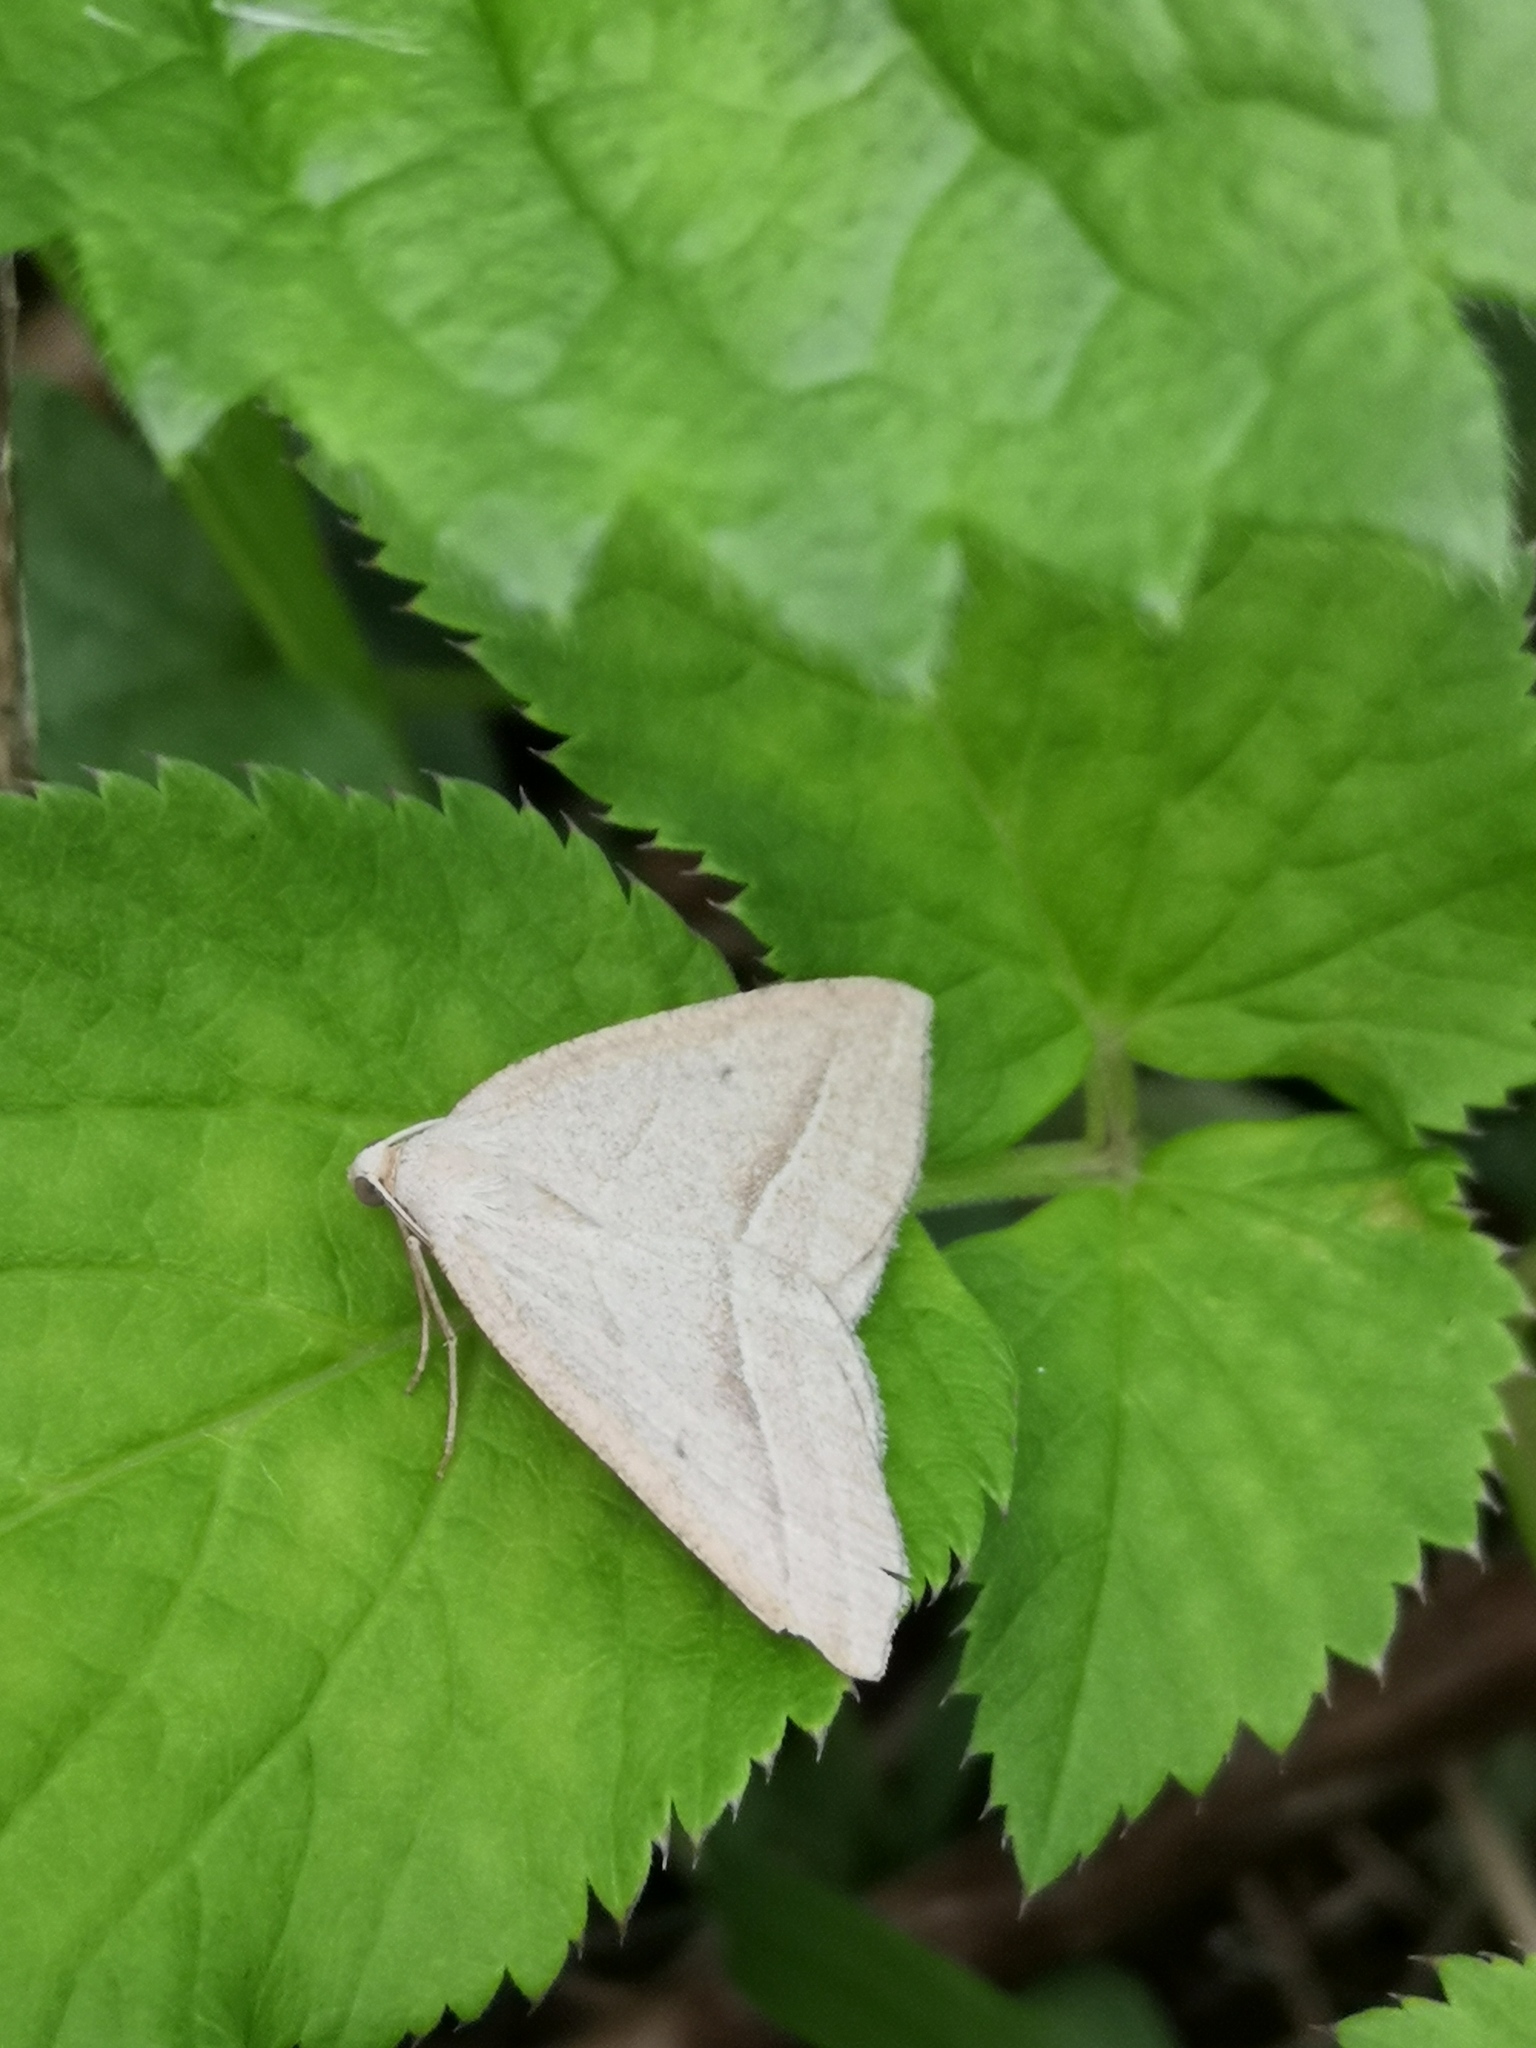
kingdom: Animalia
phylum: Arthropoda
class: Insecta
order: Lepidoptera
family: Pterophoridae
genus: Pterophorus
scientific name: Pterophorus Petrophora chlorosata
